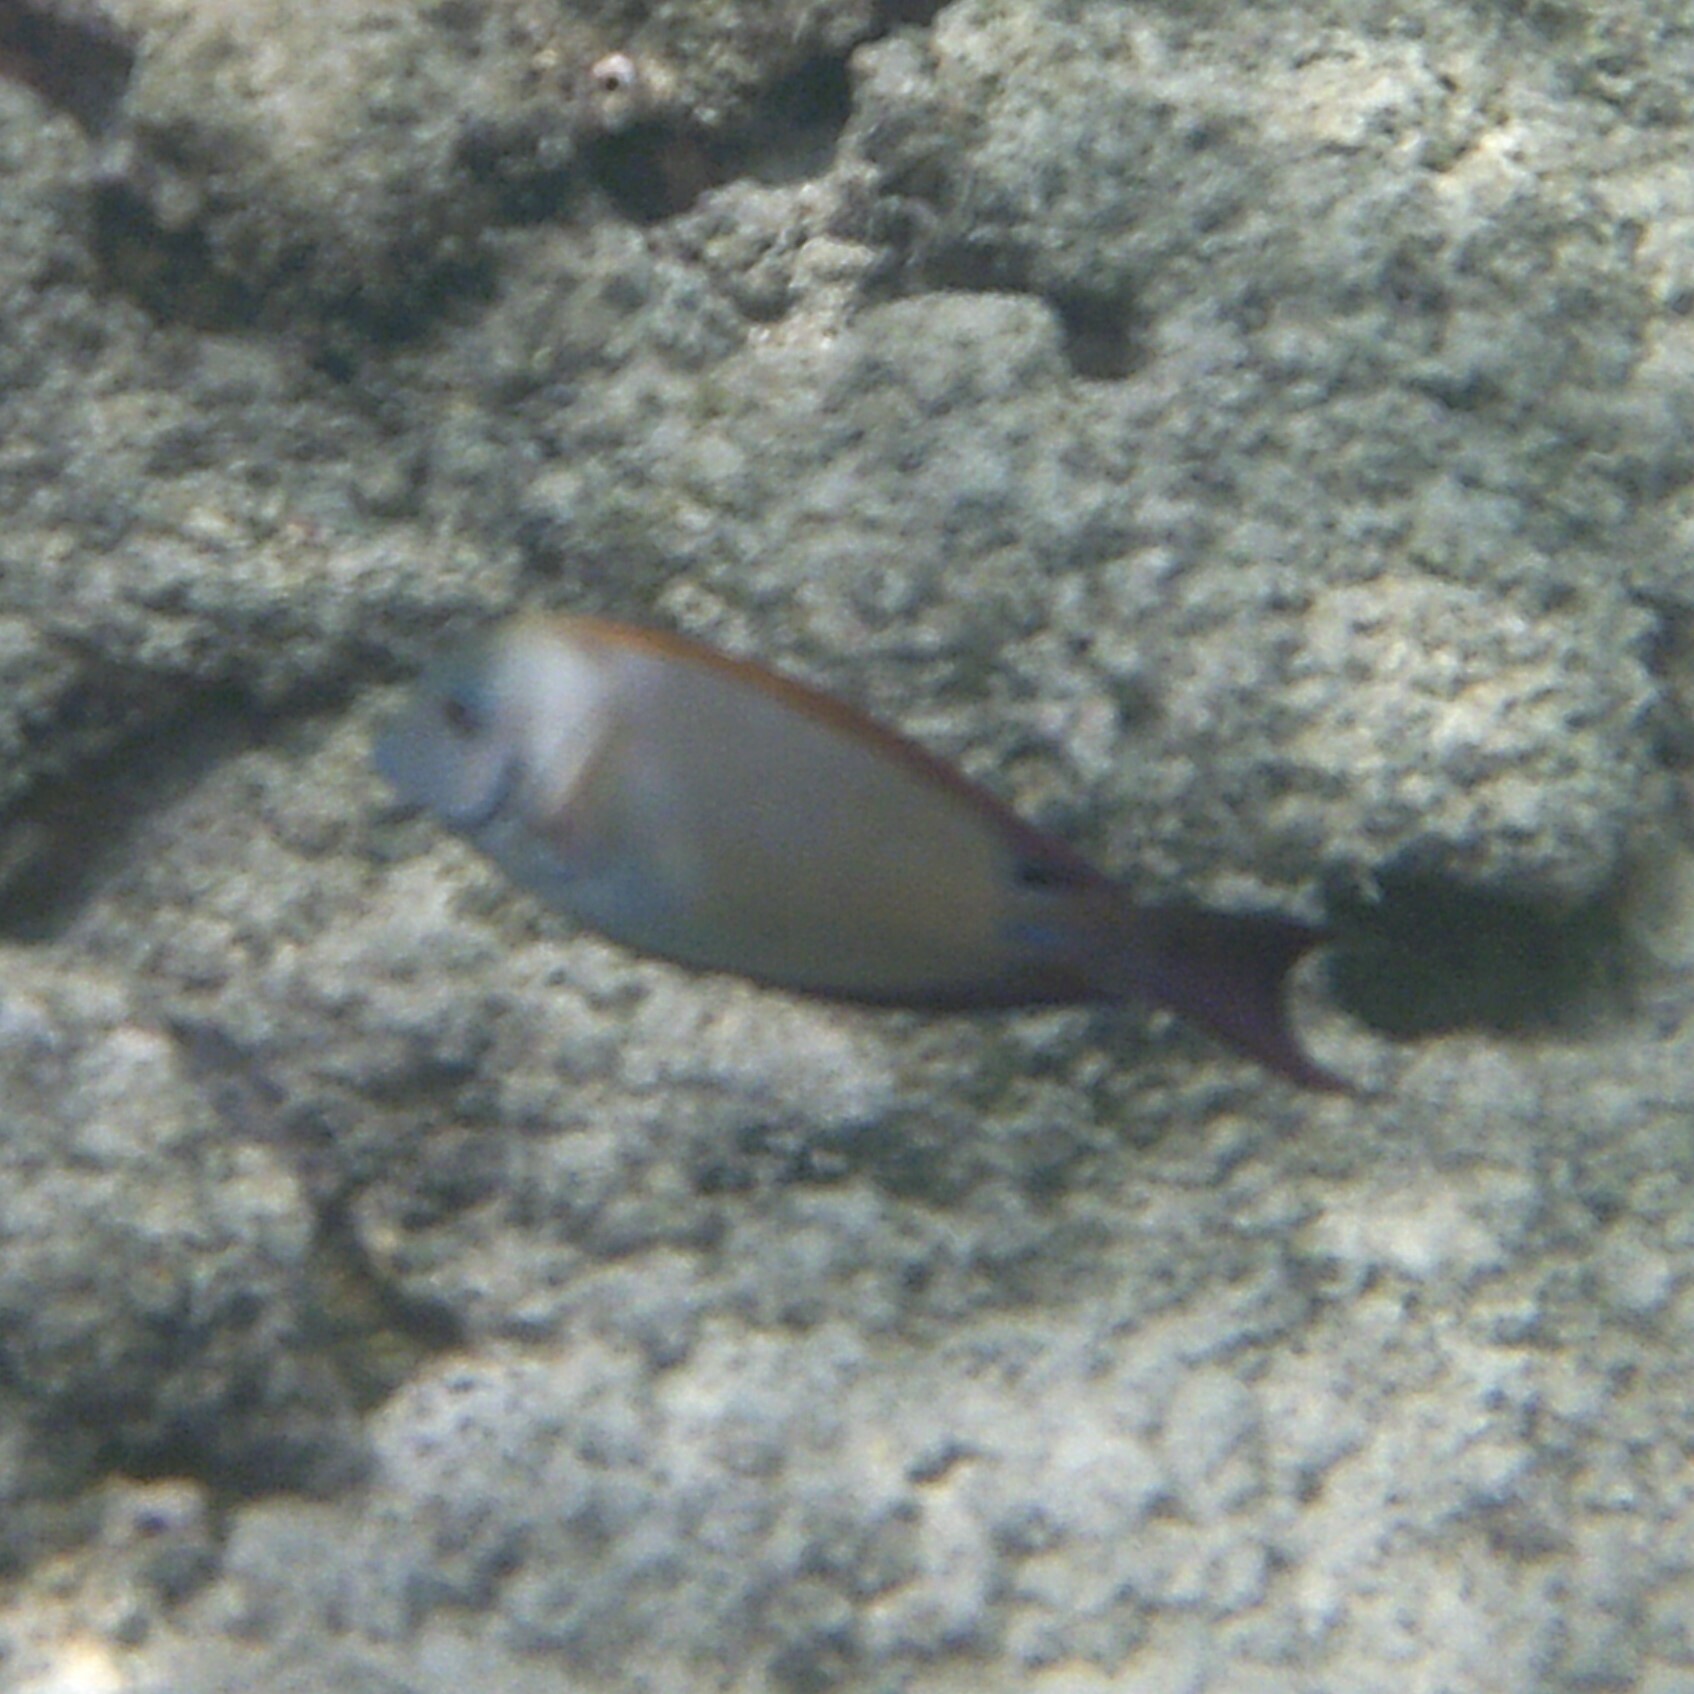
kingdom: Animalia
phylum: Chordata
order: Perciformes
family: Acanthuridae
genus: Acanthurus
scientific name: Acanthurus nigrofuscus
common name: Blackspot surgeonfish
